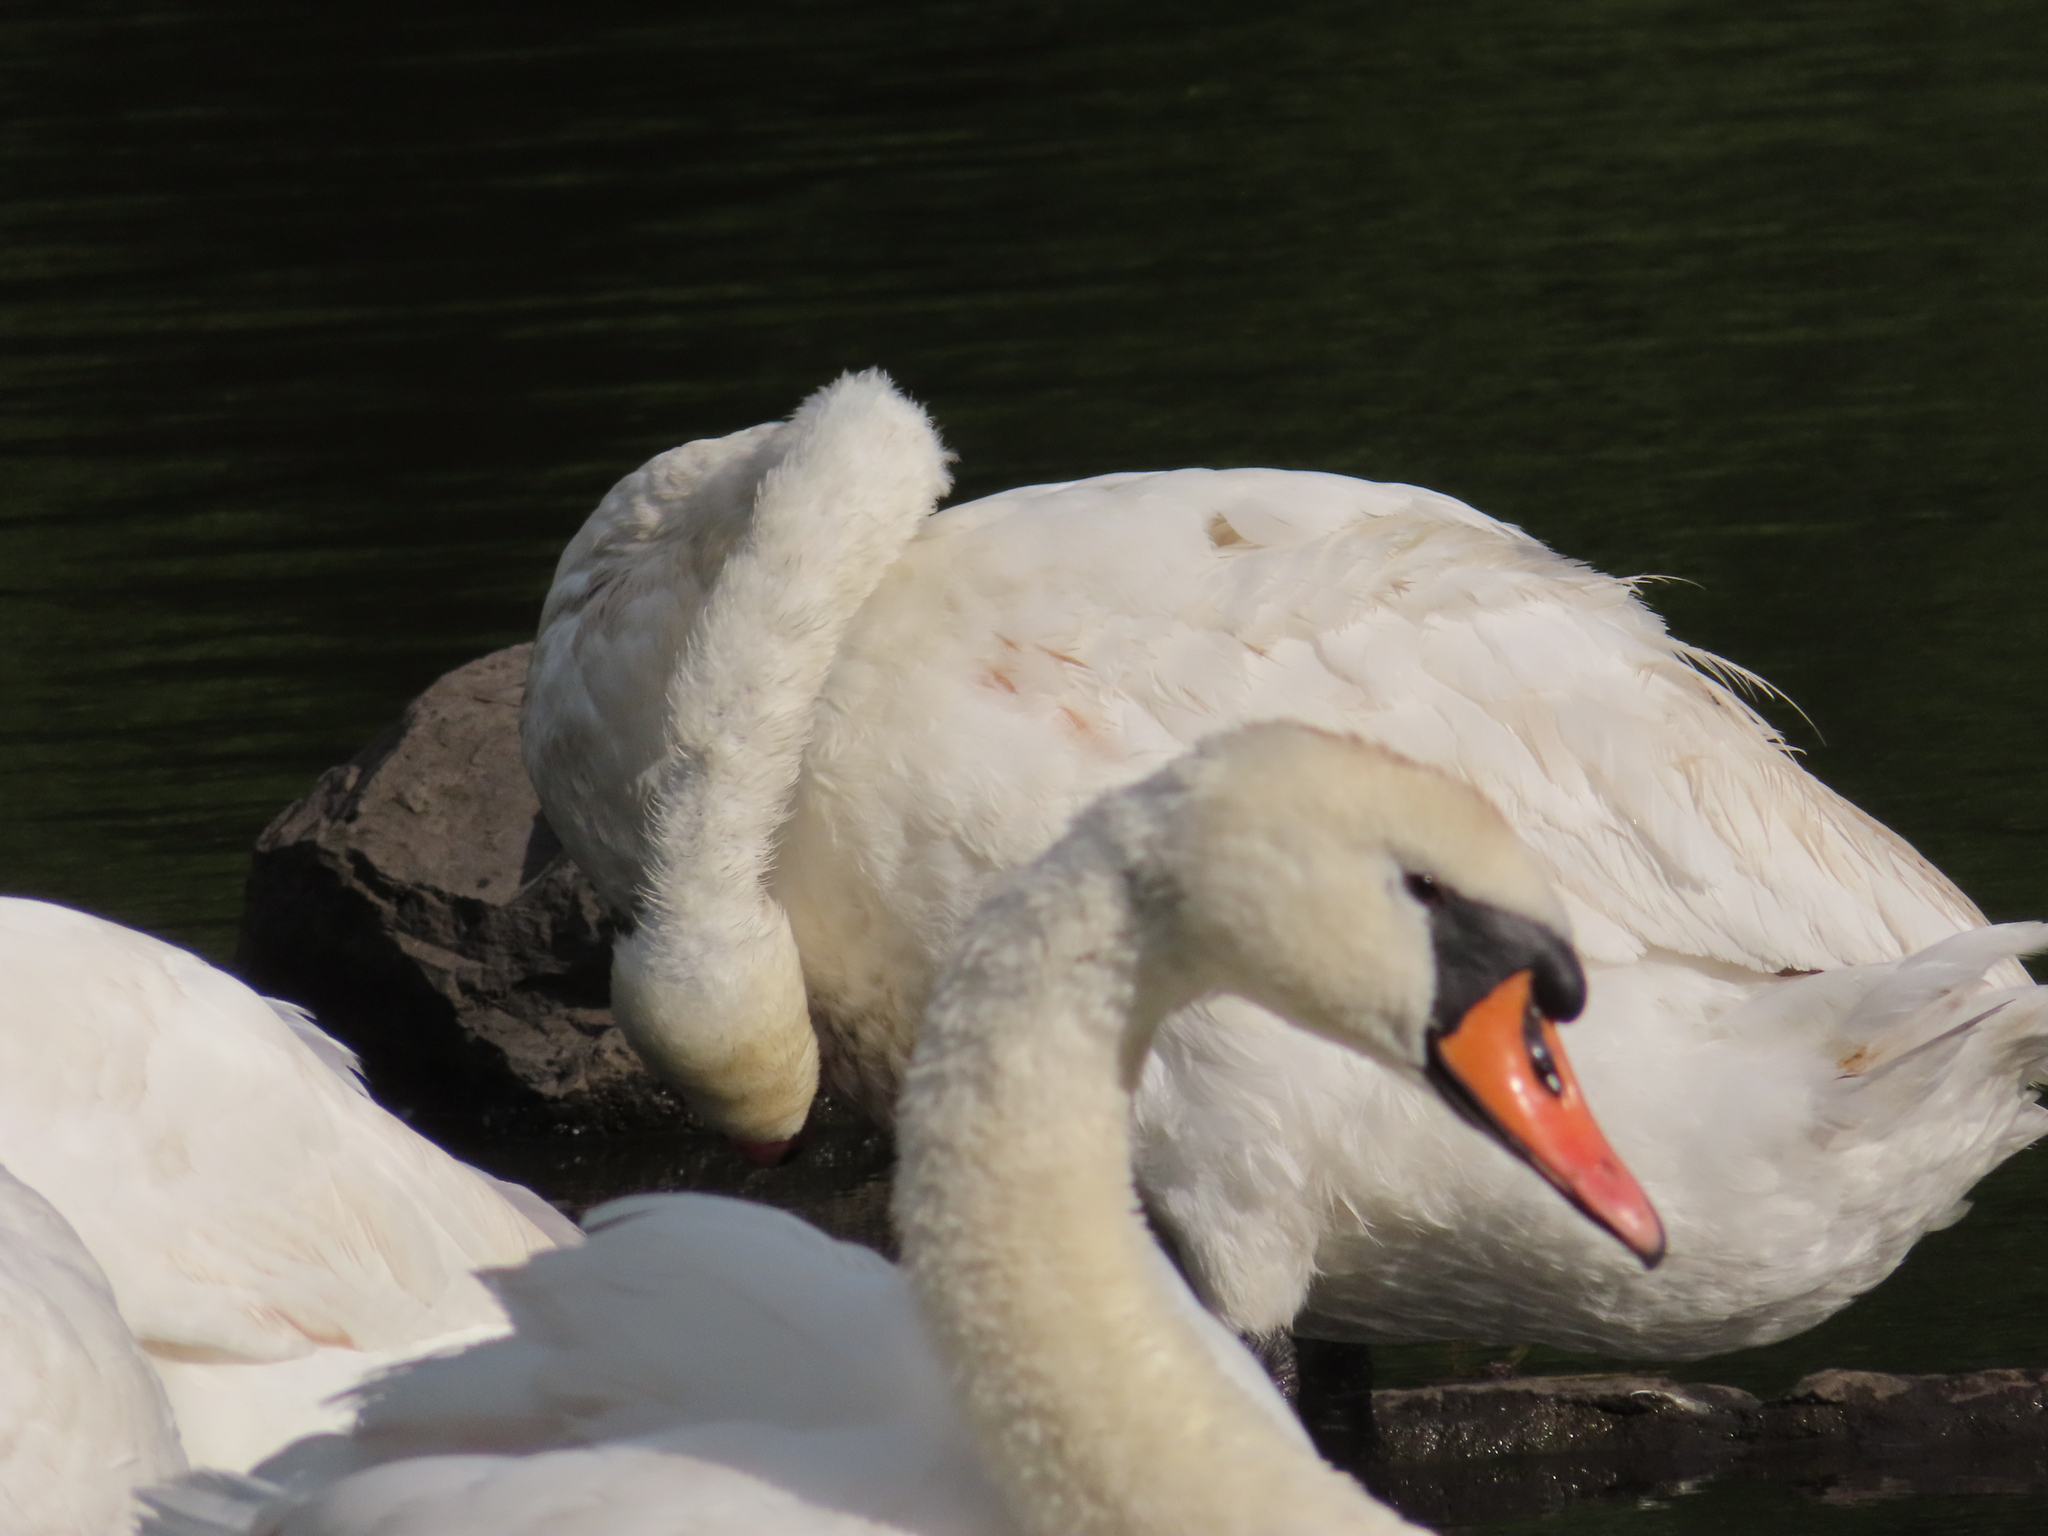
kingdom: Animalia
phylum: Chordata
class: Aves
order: Anseriformes
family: Anatidae
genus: Cygnus
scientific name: Cygnus olor
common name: Mute swan
